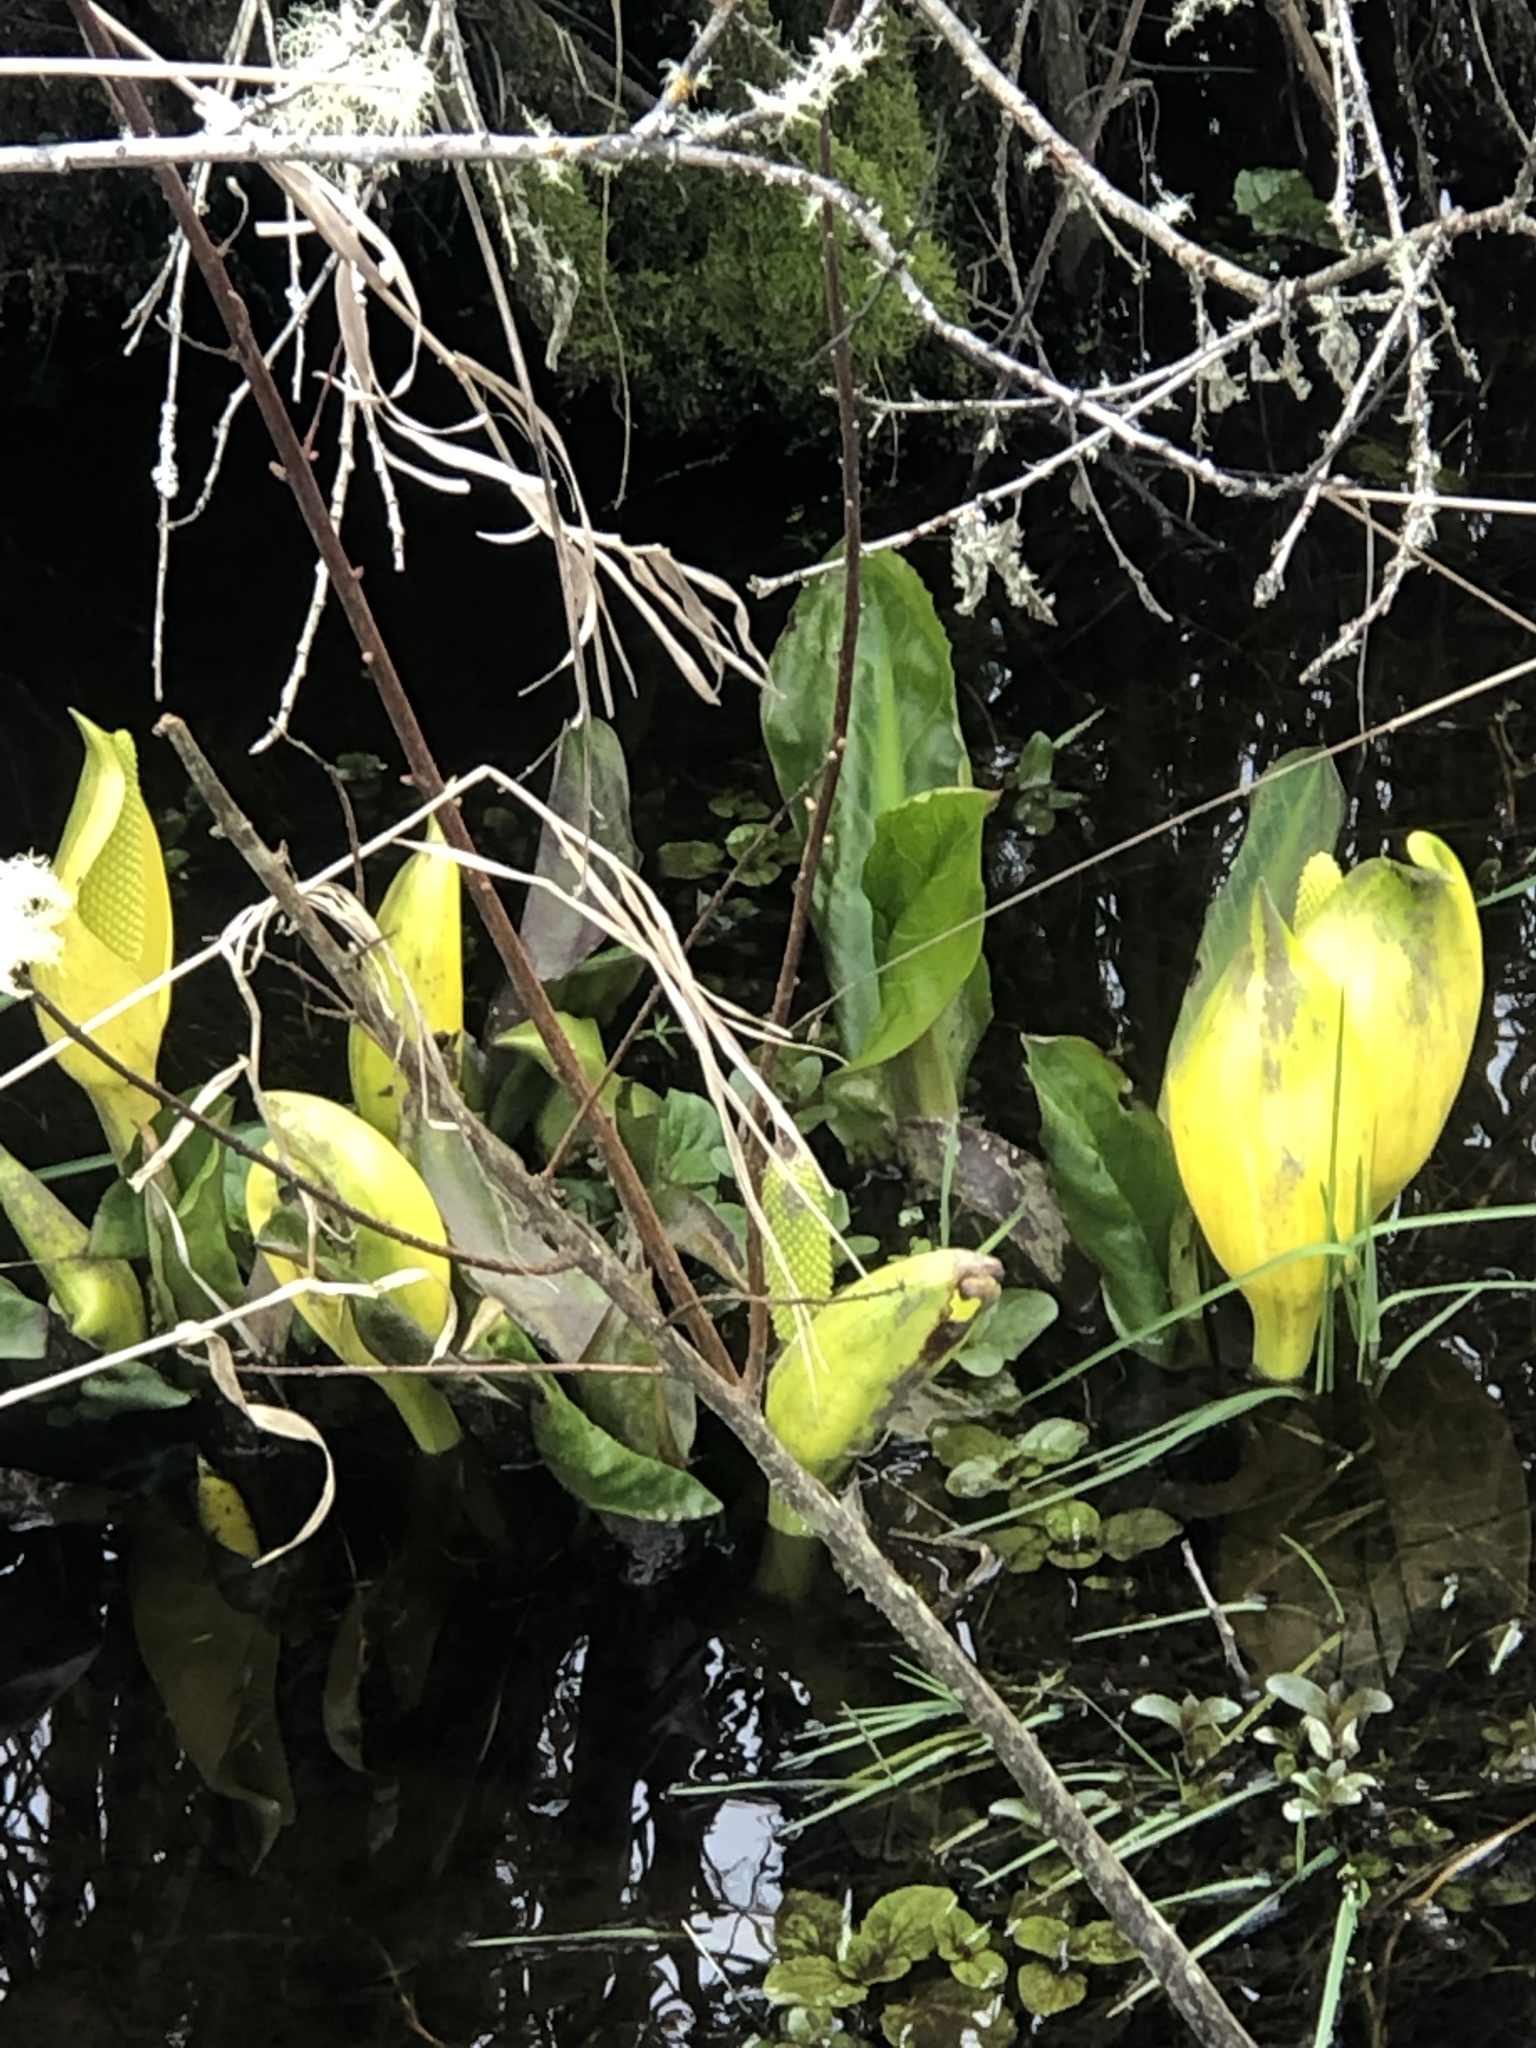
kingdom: Plantae
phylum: Tracheophyta
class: Liliopsida
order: Alismatales
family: Araceae
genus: Lysichiton
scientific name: Lysichiton americanus
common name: American skunk cabbage
